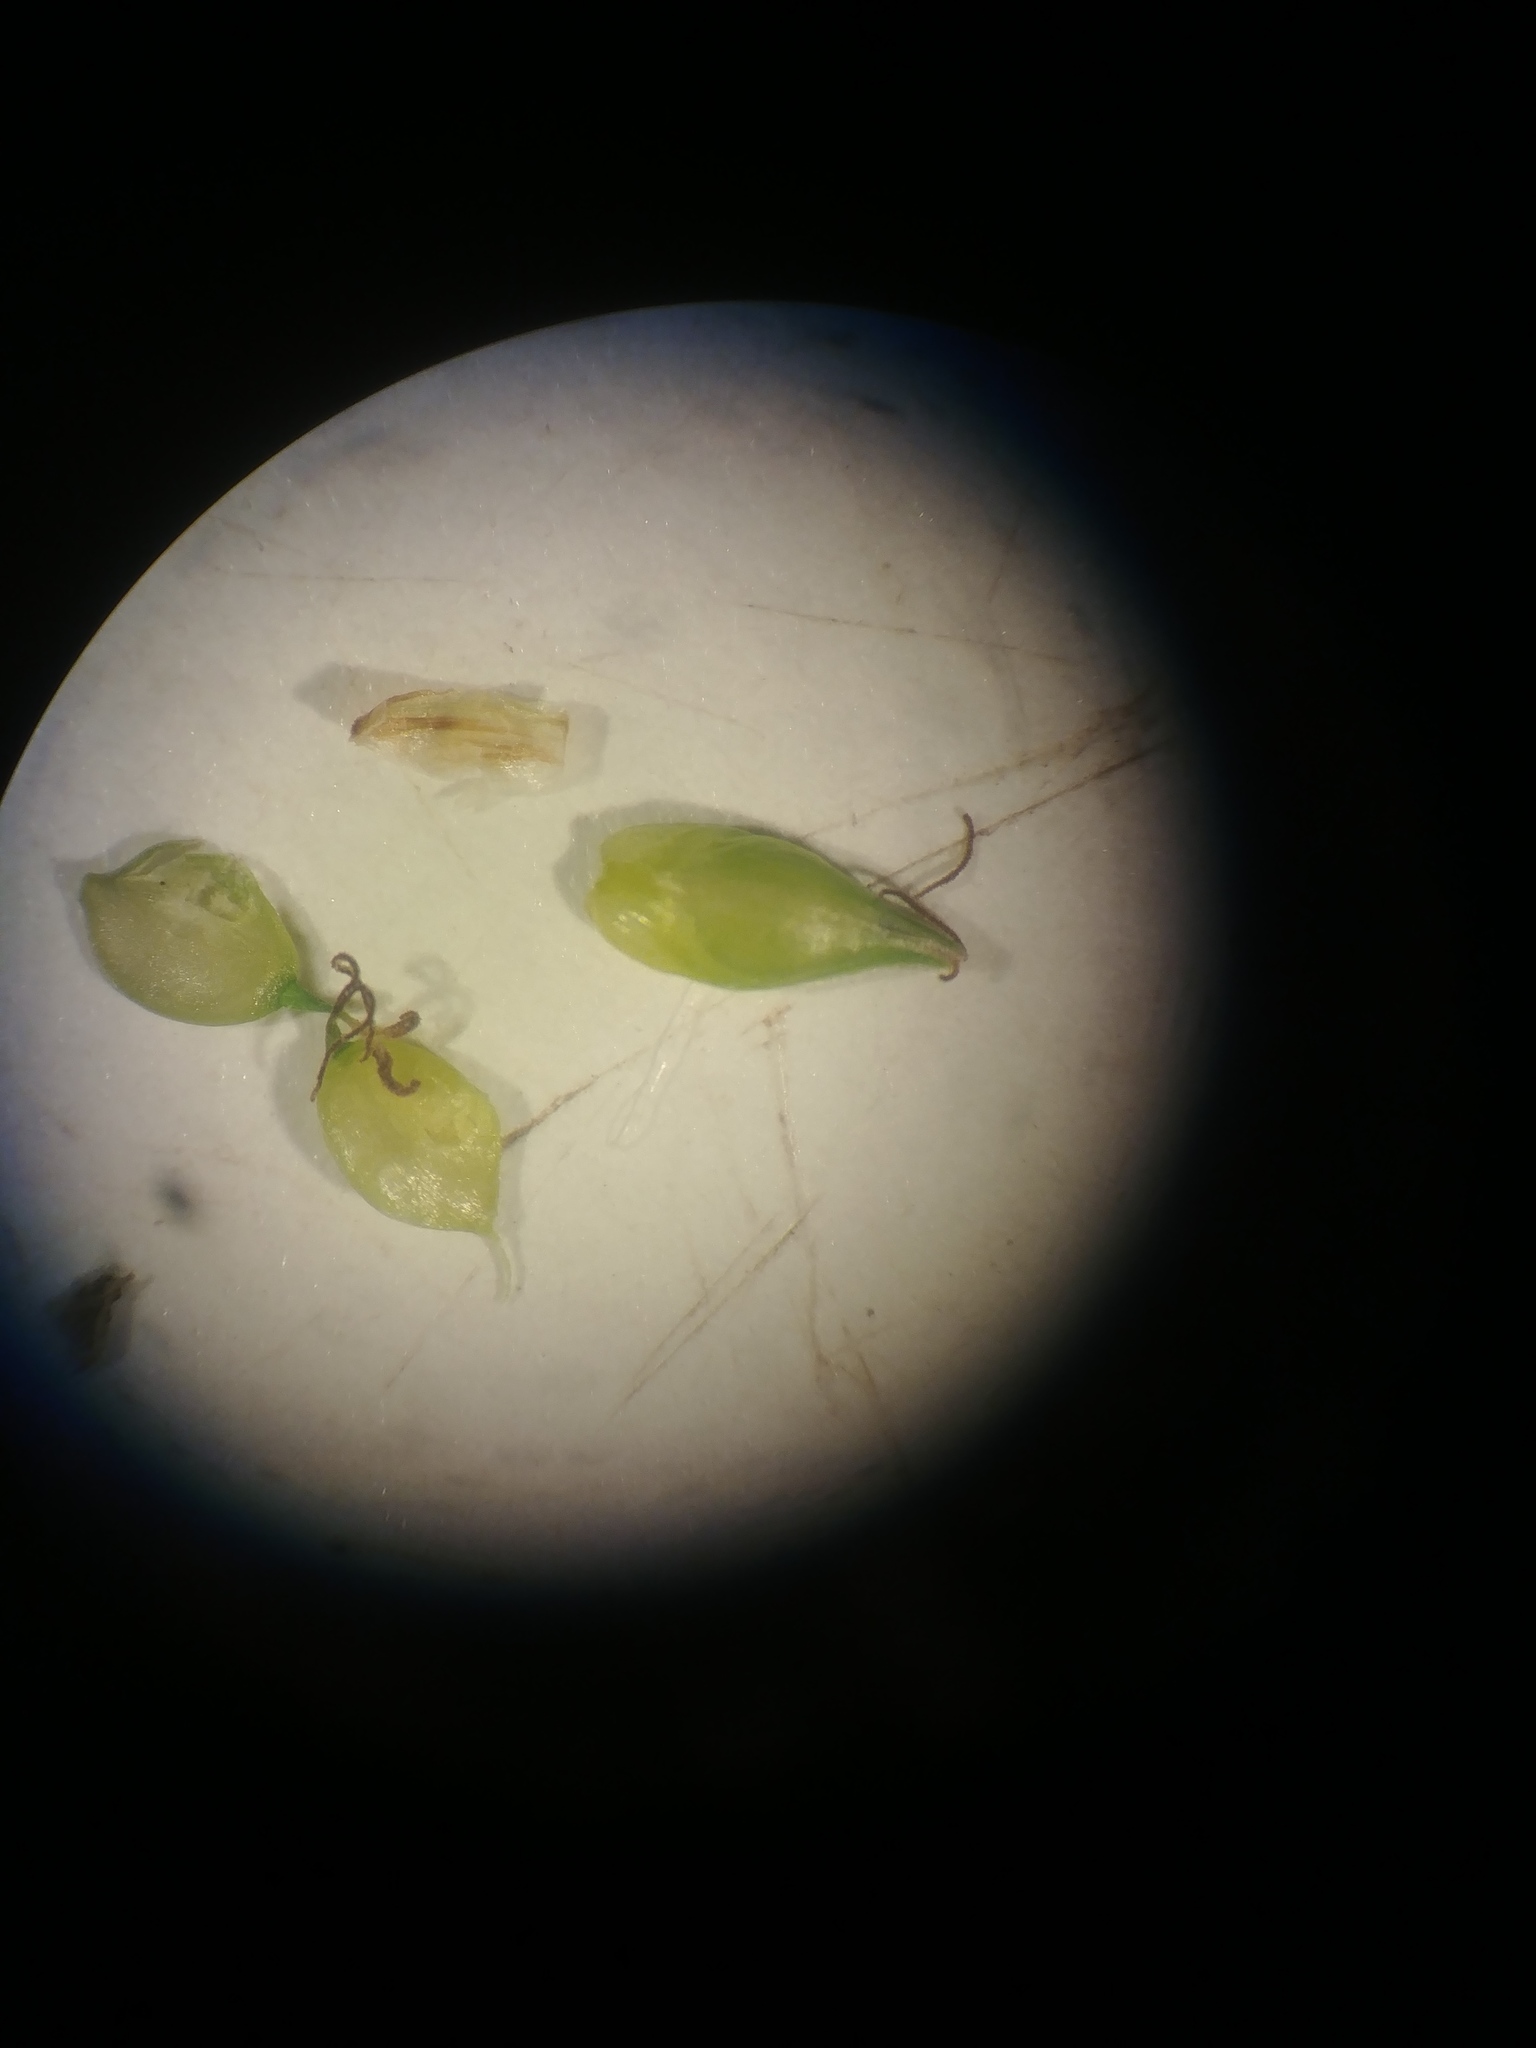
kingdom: Plantae
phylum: Tracheophyta
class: Liliopsida
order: Poales
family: Cyperaceae
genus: Carex
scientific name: Carex rosea
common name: Curly-styled wood sedge
